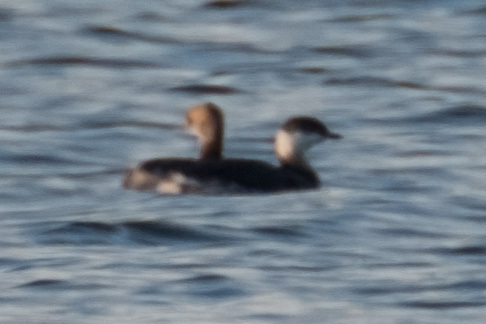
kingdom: Animalia
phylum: Chordata
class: Aves
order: Podicipediformes
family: Podicipedidae
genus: Podiceps
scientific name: Podiceps auritus
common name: Horned grebe
